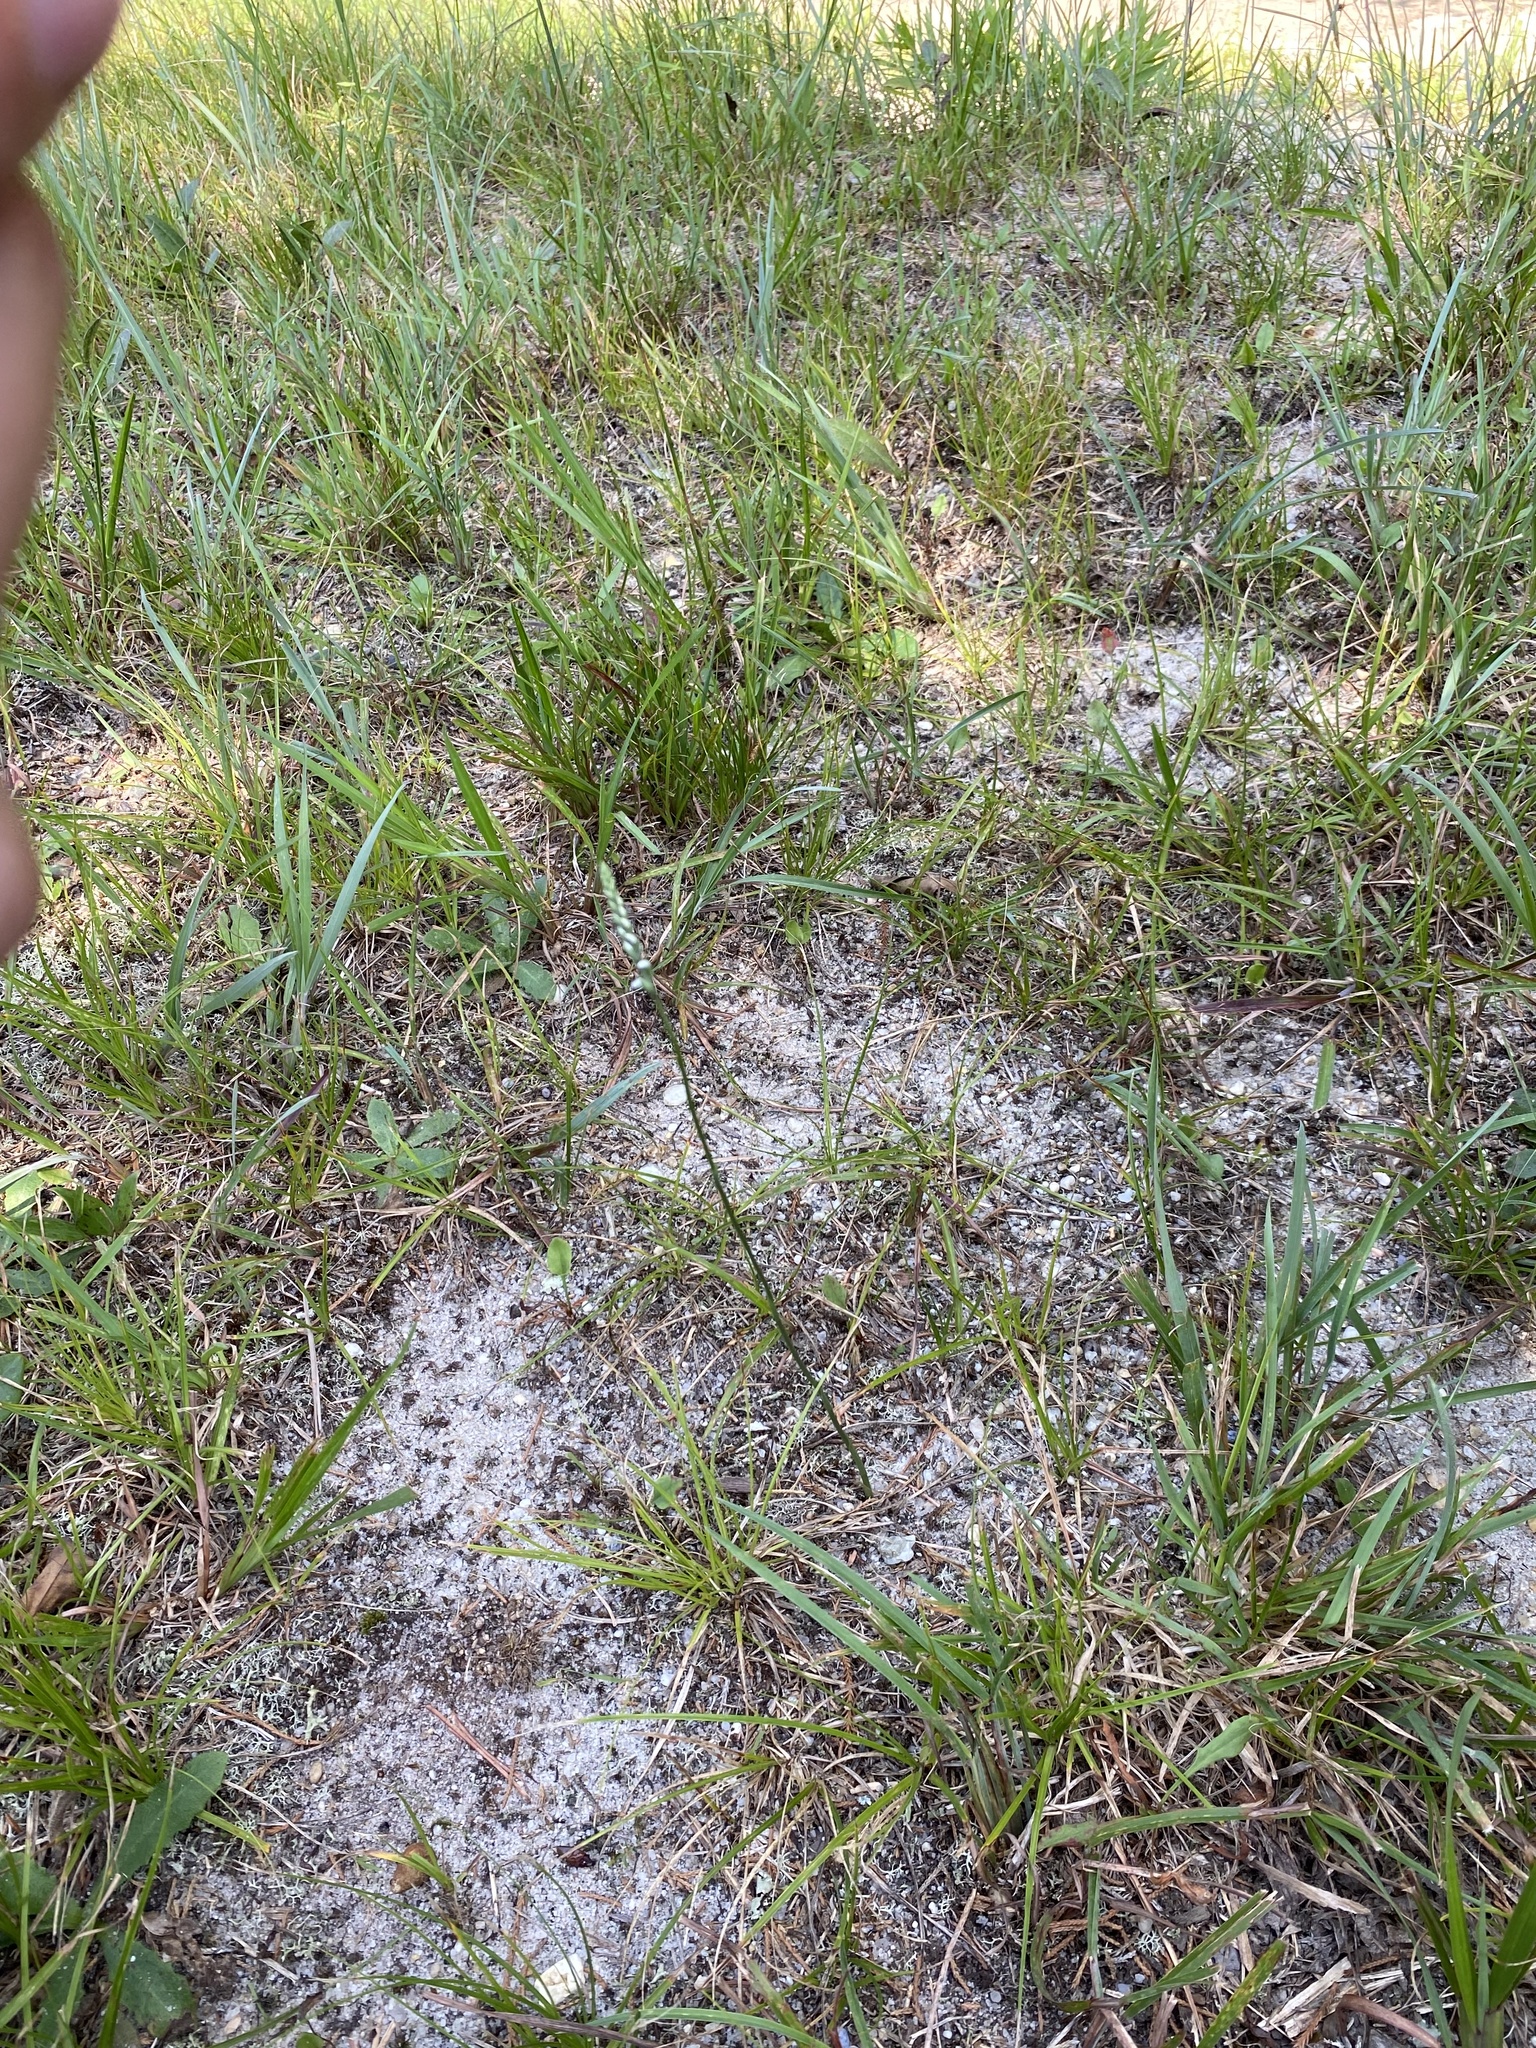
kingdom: Plantae
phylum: Tracheophyta
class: Liliopsida
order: Asparagales
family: Orchidaceae
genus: Spiranthes
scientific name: Spiranthes tuberosa
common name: Little ladies'-tresses
